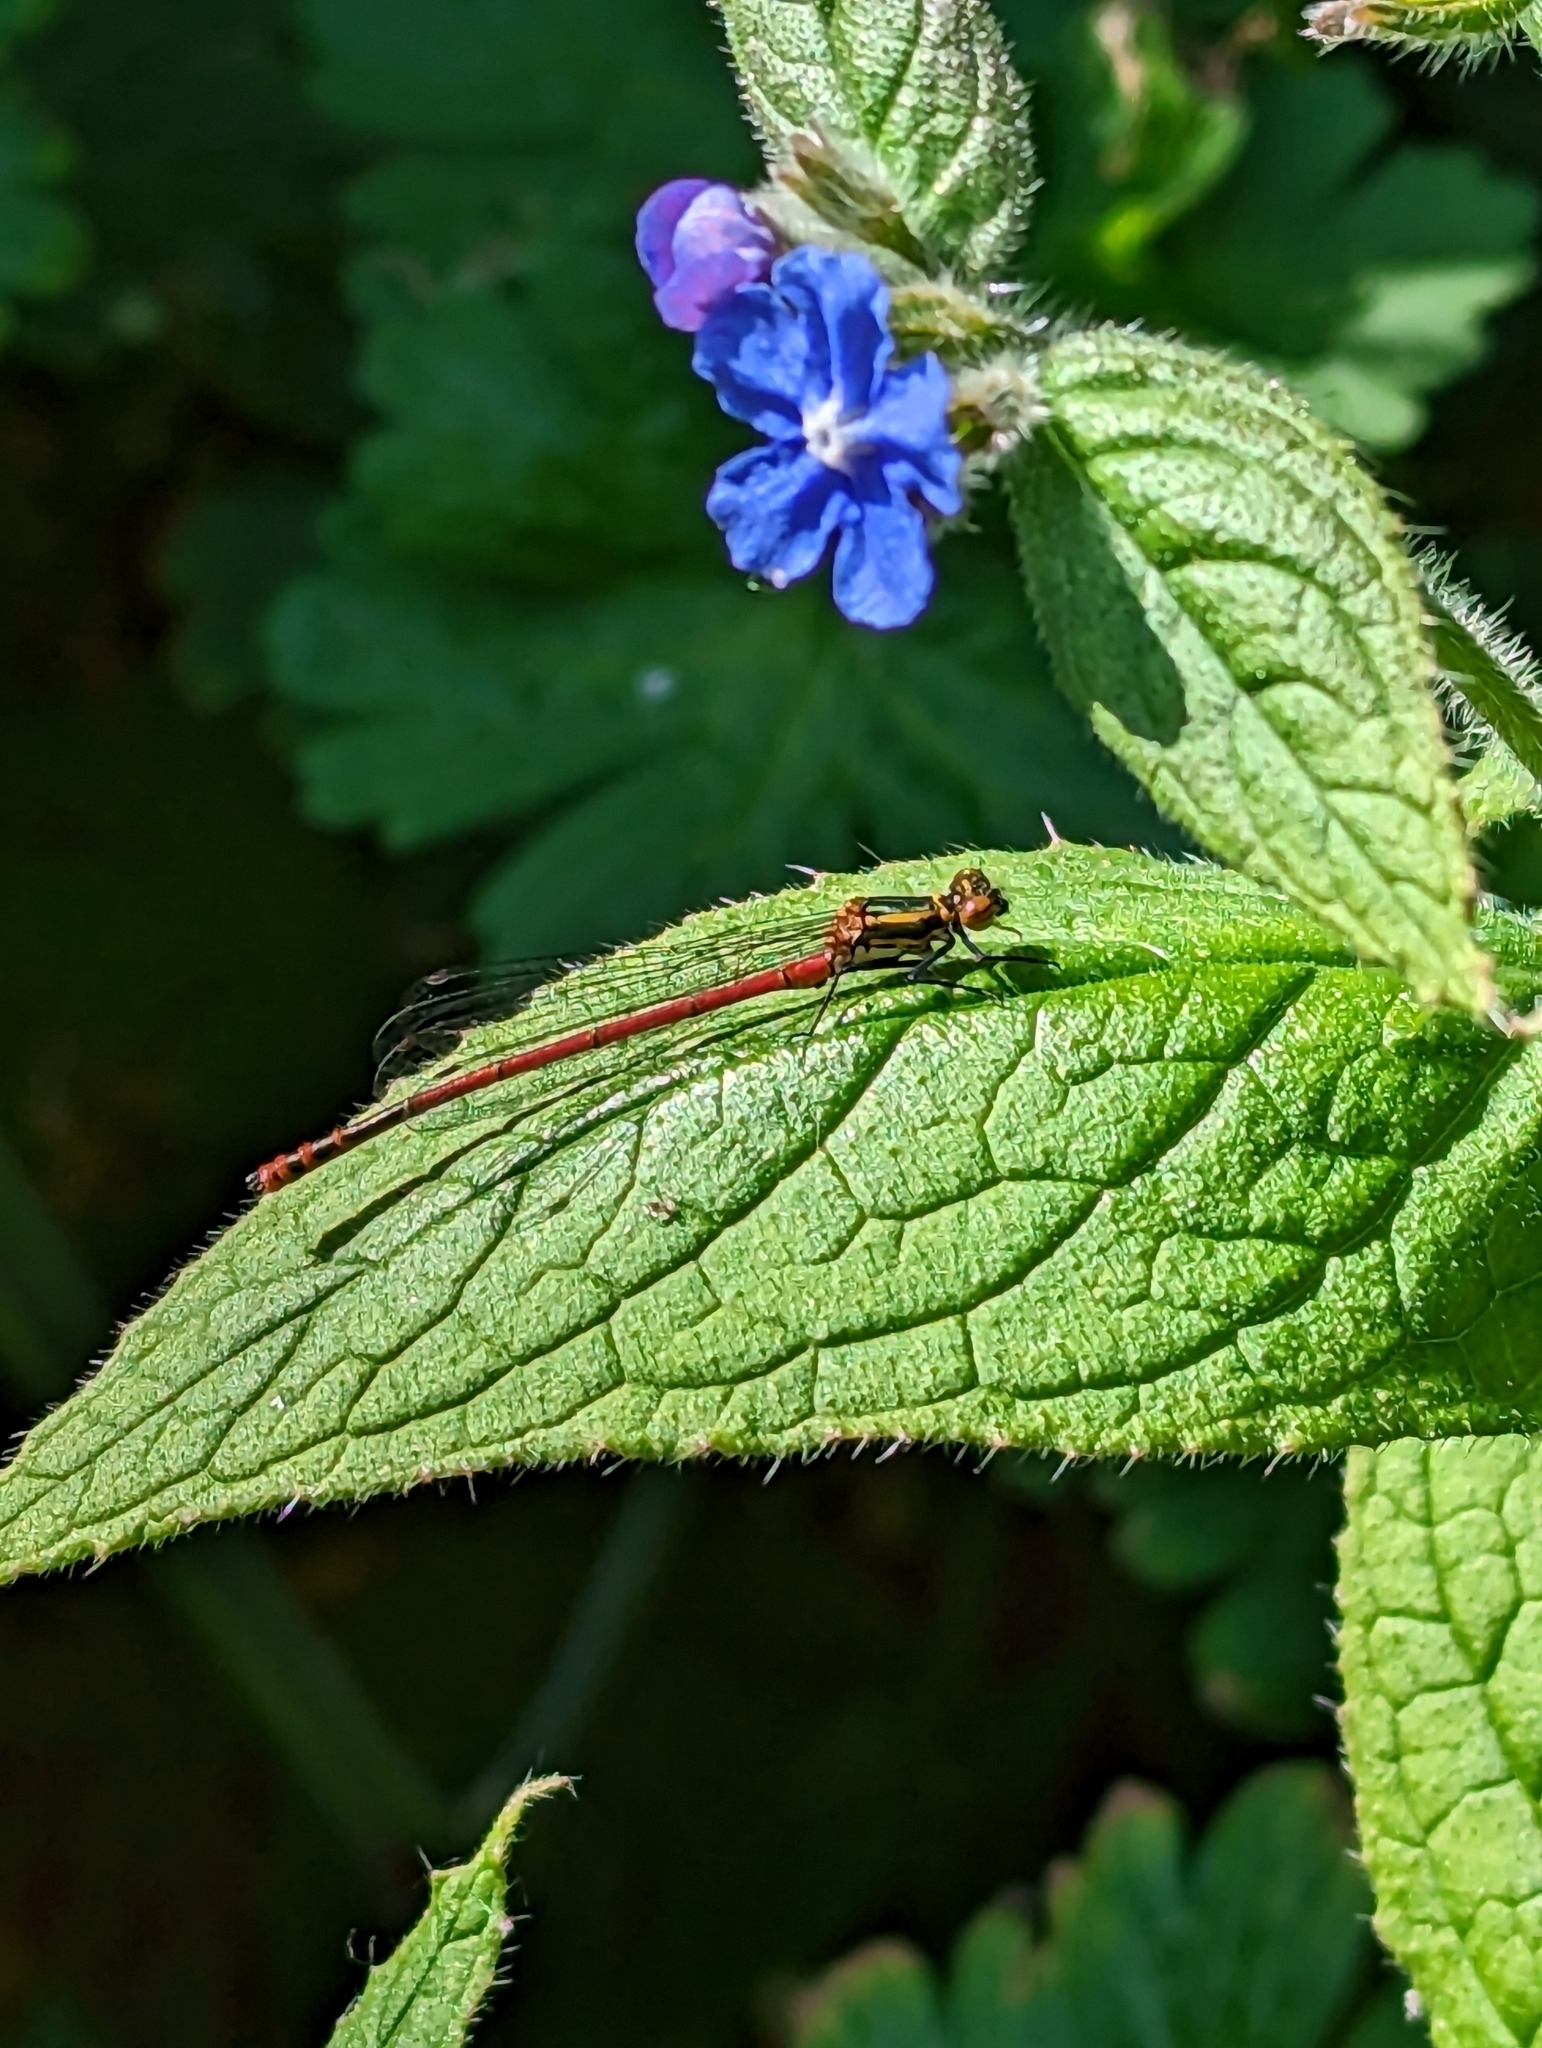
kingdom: Animalia
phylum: Arthropoda
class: Insecta
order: Odonata
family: Coenagrionidae
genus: Pyrrhosoma
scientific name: Pyrrhosoma nymphula
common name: Large red damsel
